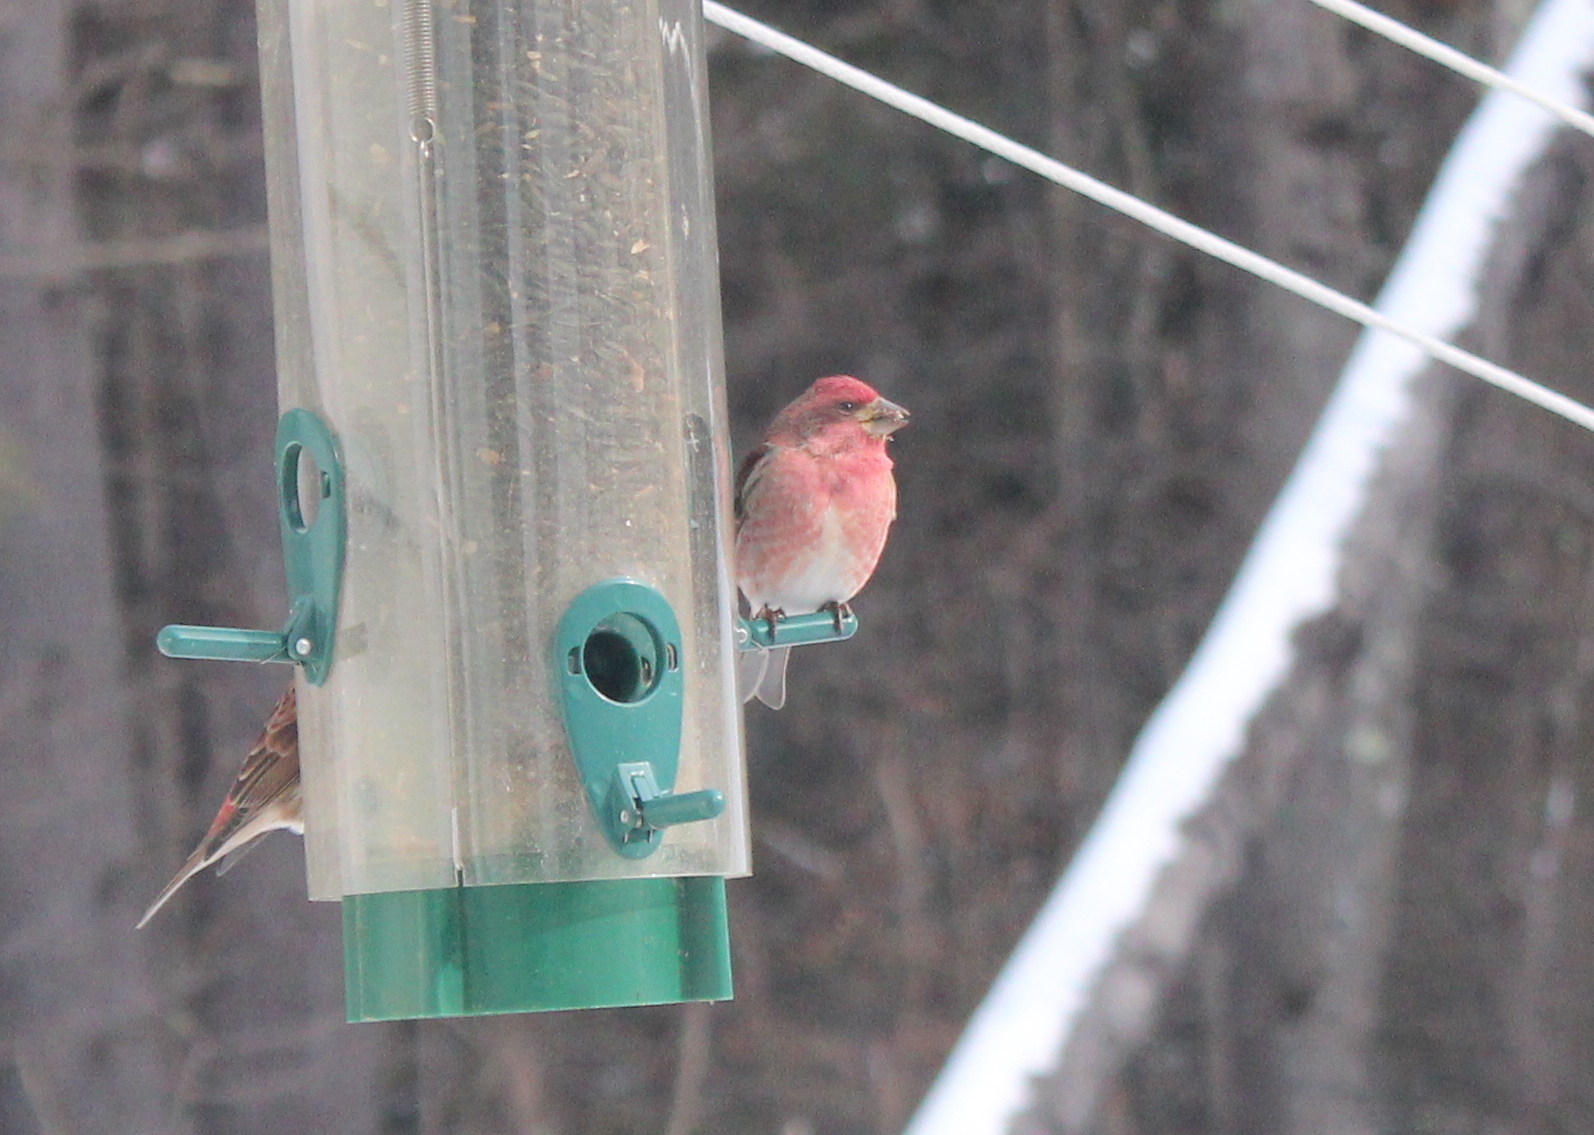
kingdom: Animalia
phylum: Chordata
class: Aves
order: Passeriformes
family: Fringillidae
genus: Haemorhous
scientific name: Haemorhous purpureus
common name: Purple finch
